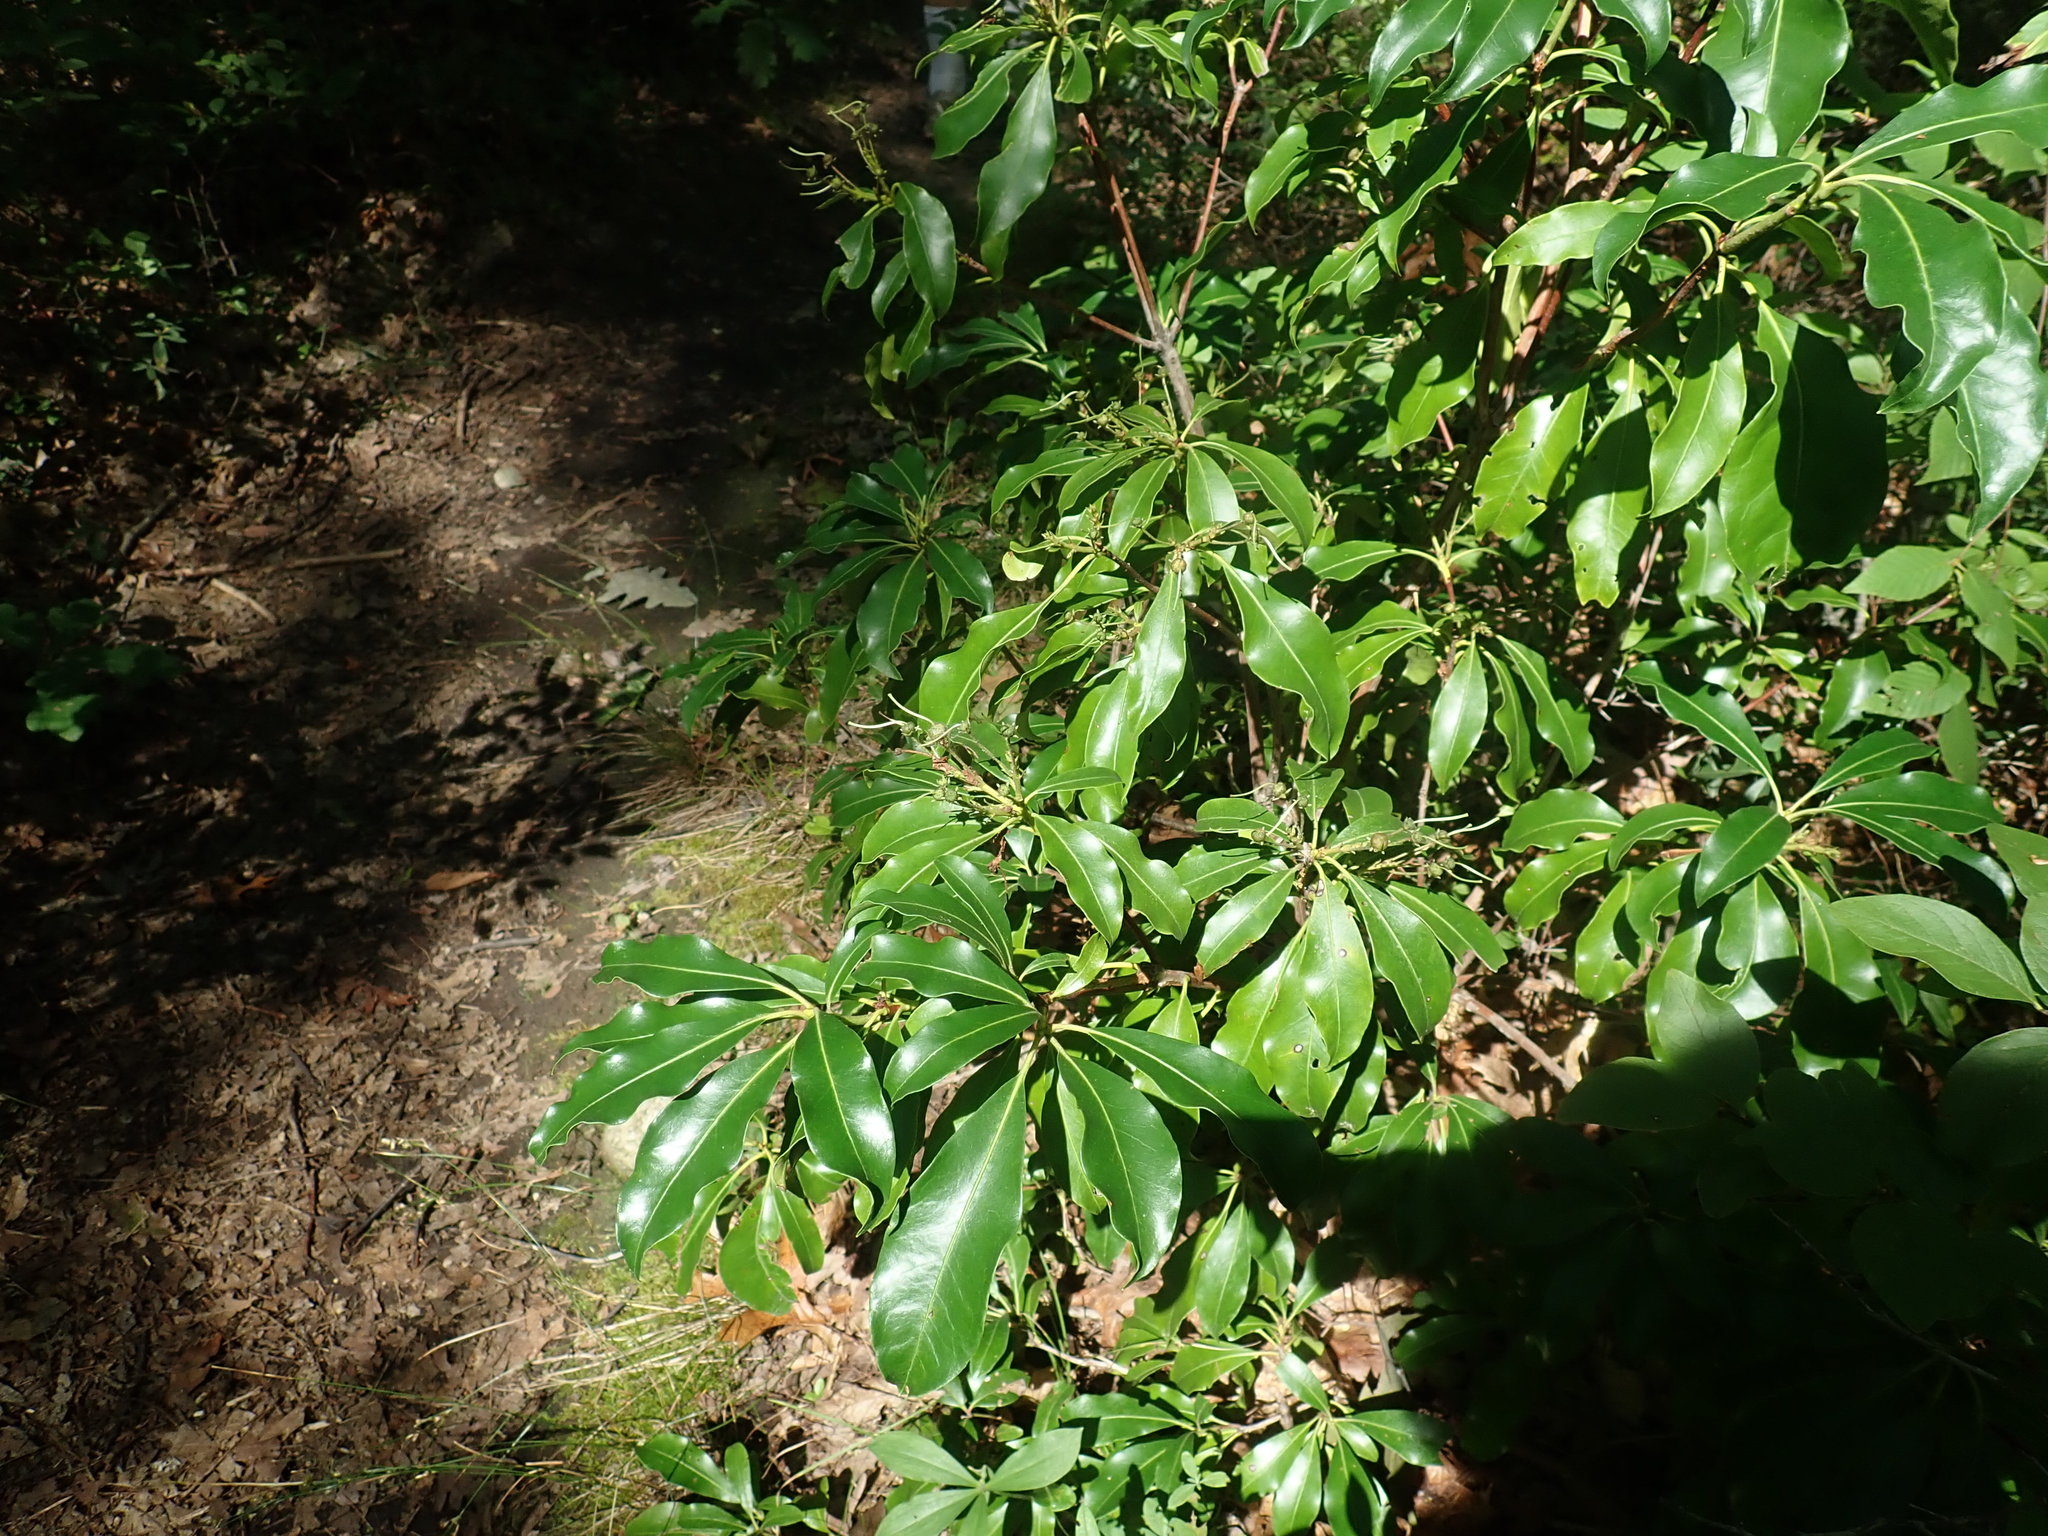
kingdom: Plantae
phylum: Tracheophyta
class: Magnoliopsida
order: Ericales
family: Ericaceae
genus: Kalmia
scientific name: Kalmia latifolia
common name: Mountain-laurel
